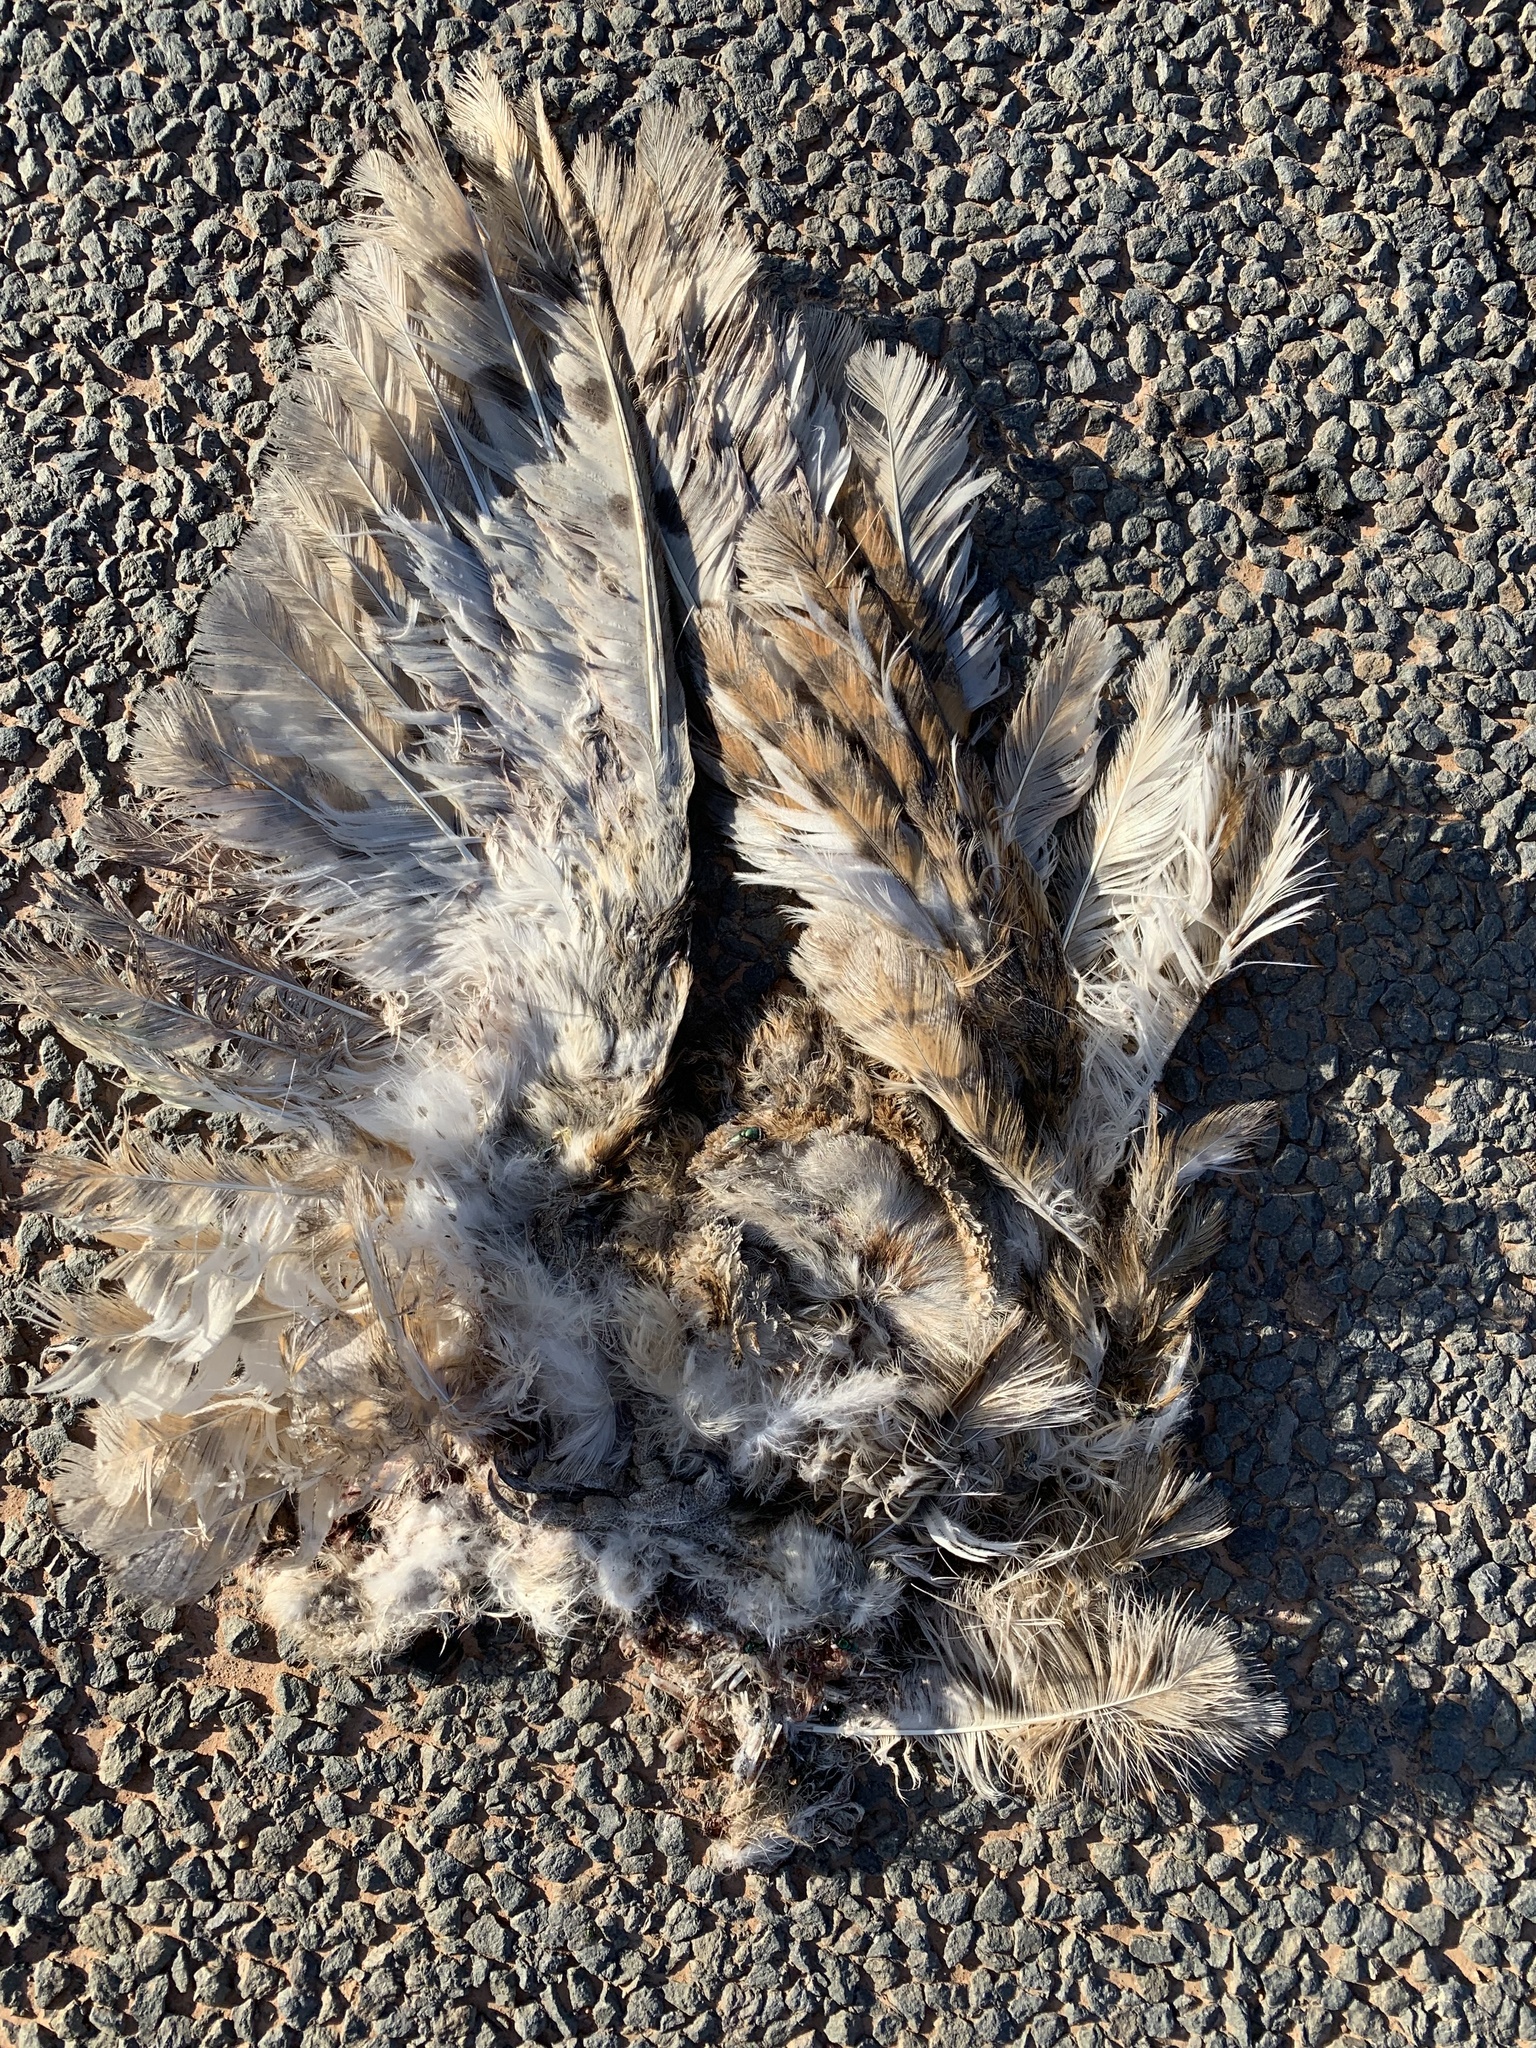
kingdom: Animalia
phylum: Chordata
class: Aves
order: Strigiformes
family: Tytonidae
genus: Tyto
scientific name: Tyto alba
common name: Barn owl
